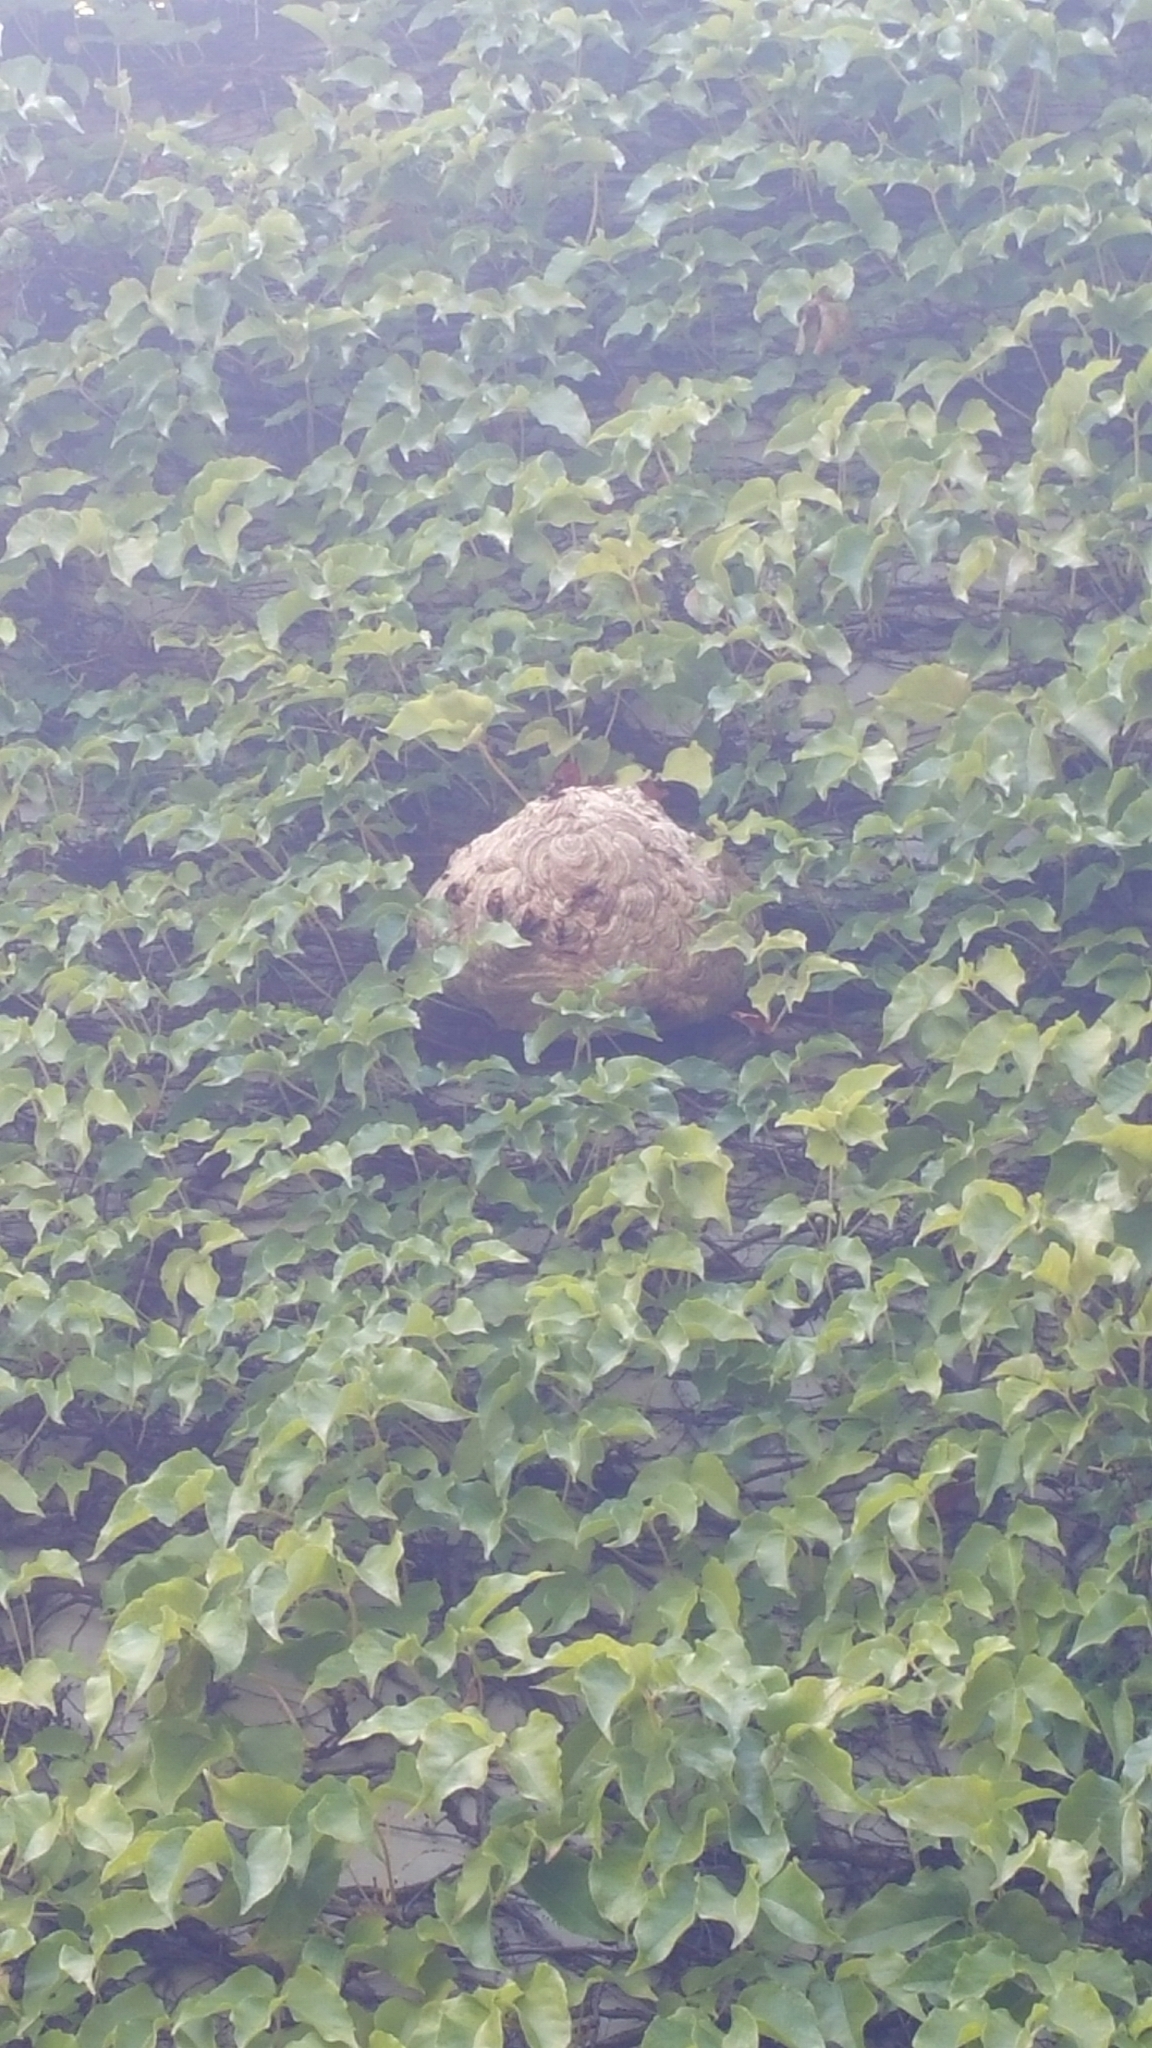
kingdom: Animalia
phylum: Arthropoda
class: Insecta
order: Hymenoptera
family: Vespidae
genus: Vespa
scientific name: Vespa affinis
